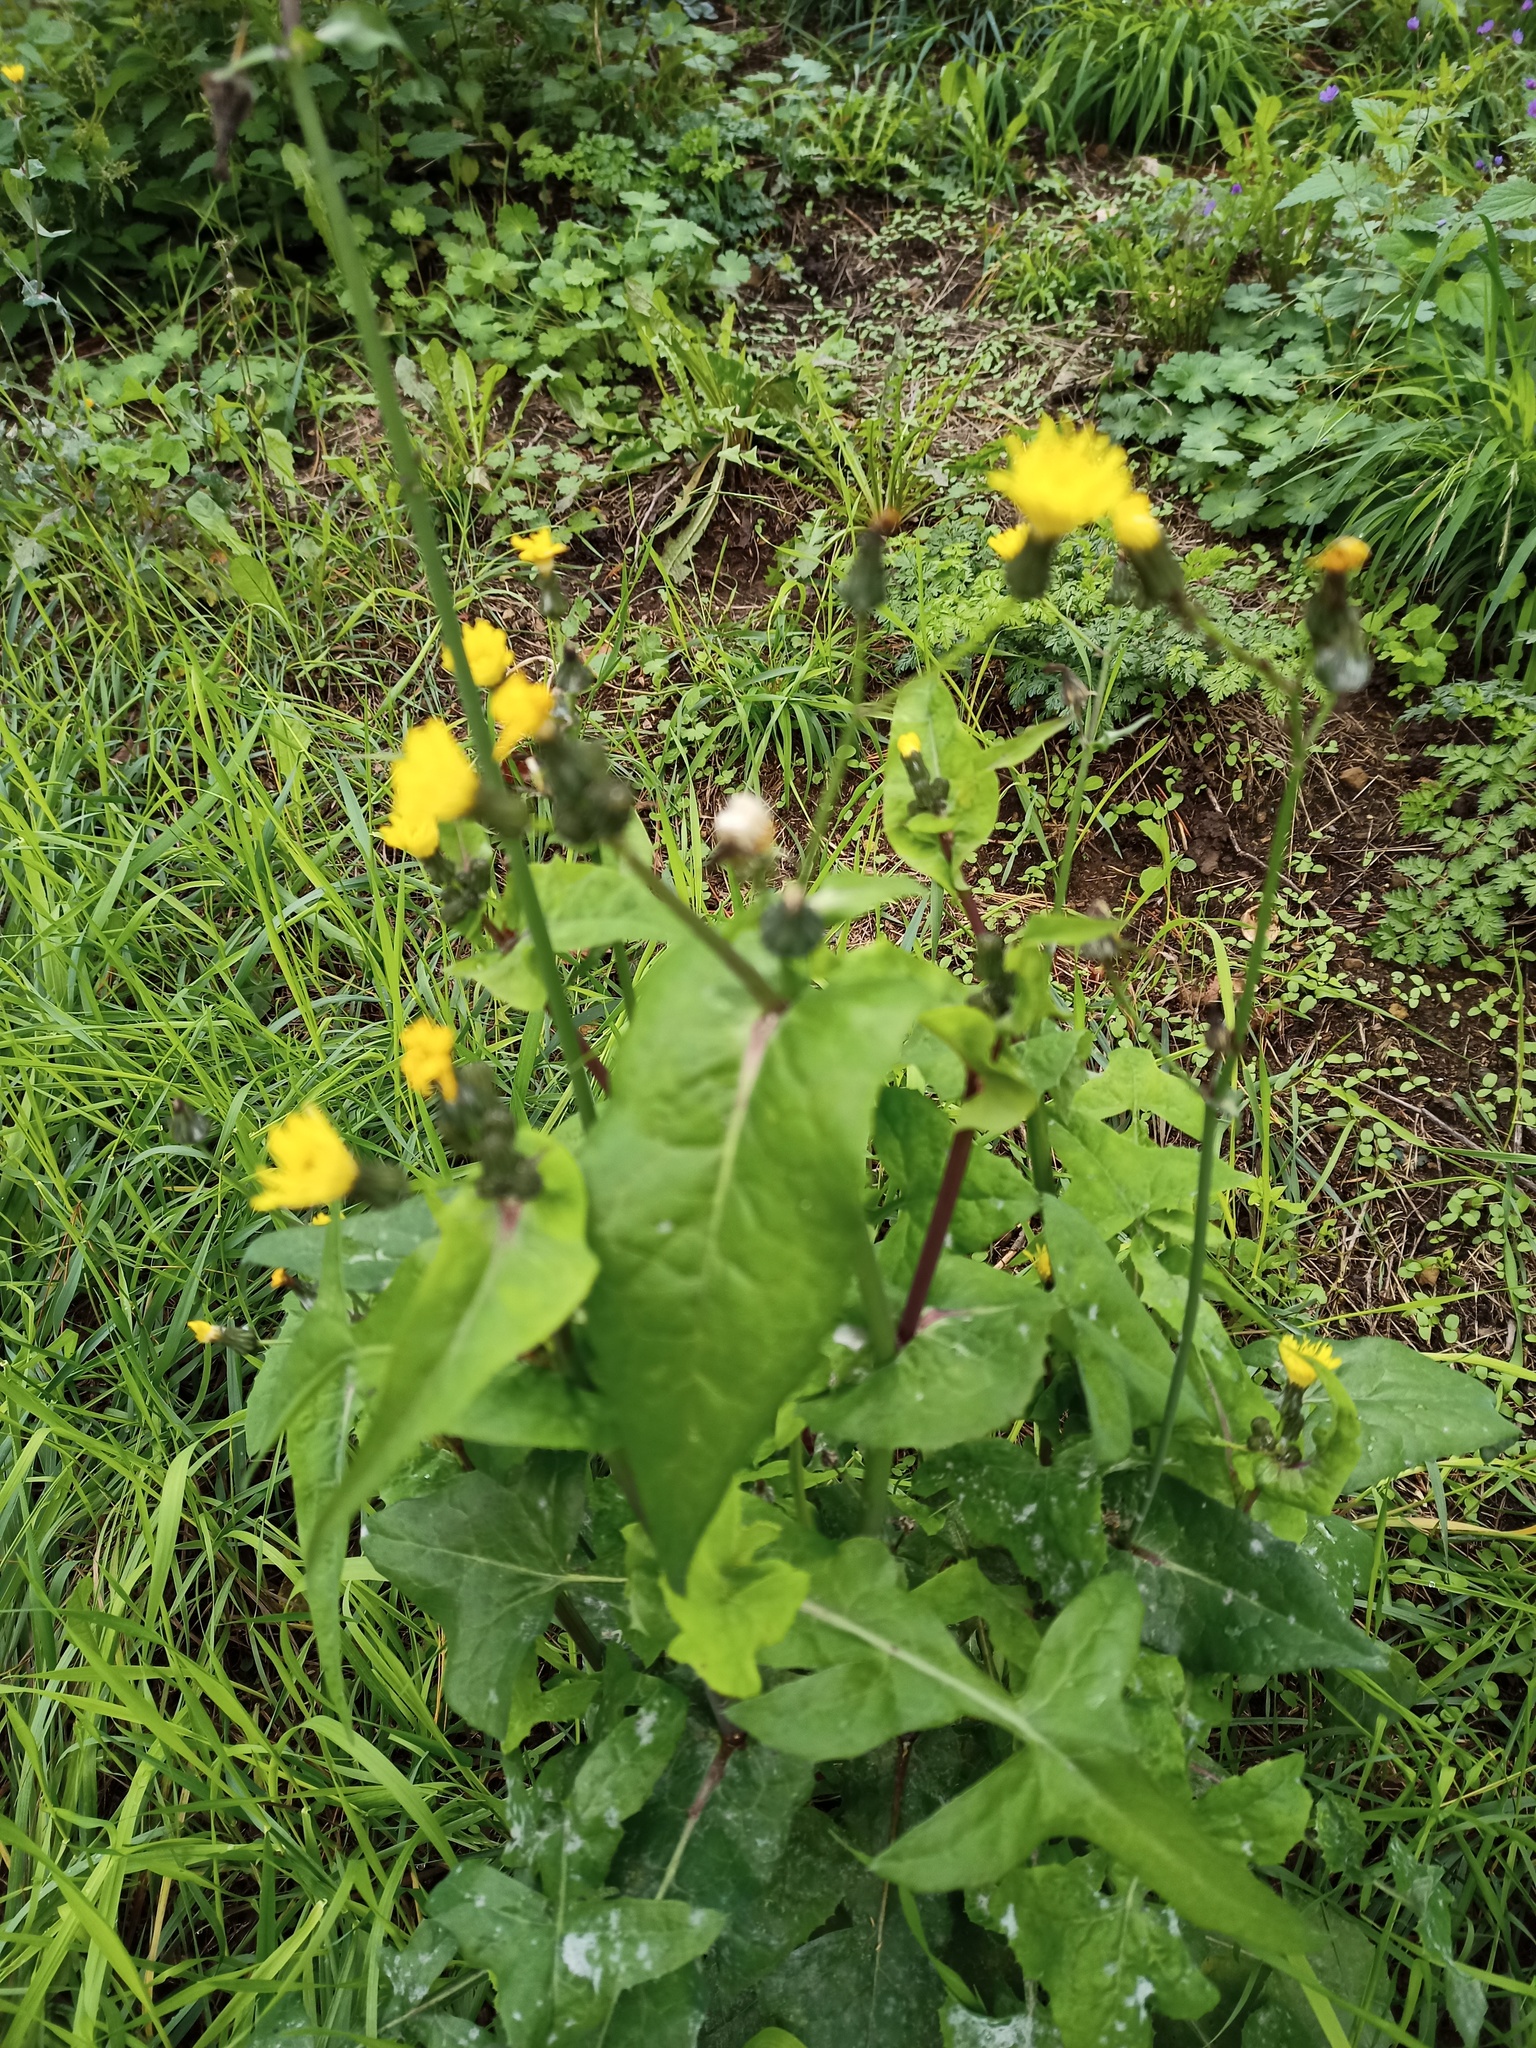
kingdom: Plantae
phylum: Tracheophyta
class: Magnoliopsida
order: Asterales
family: Asteraceae
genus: Sonchus
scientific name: Sonchus oleraceus
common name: Common sowthistle
